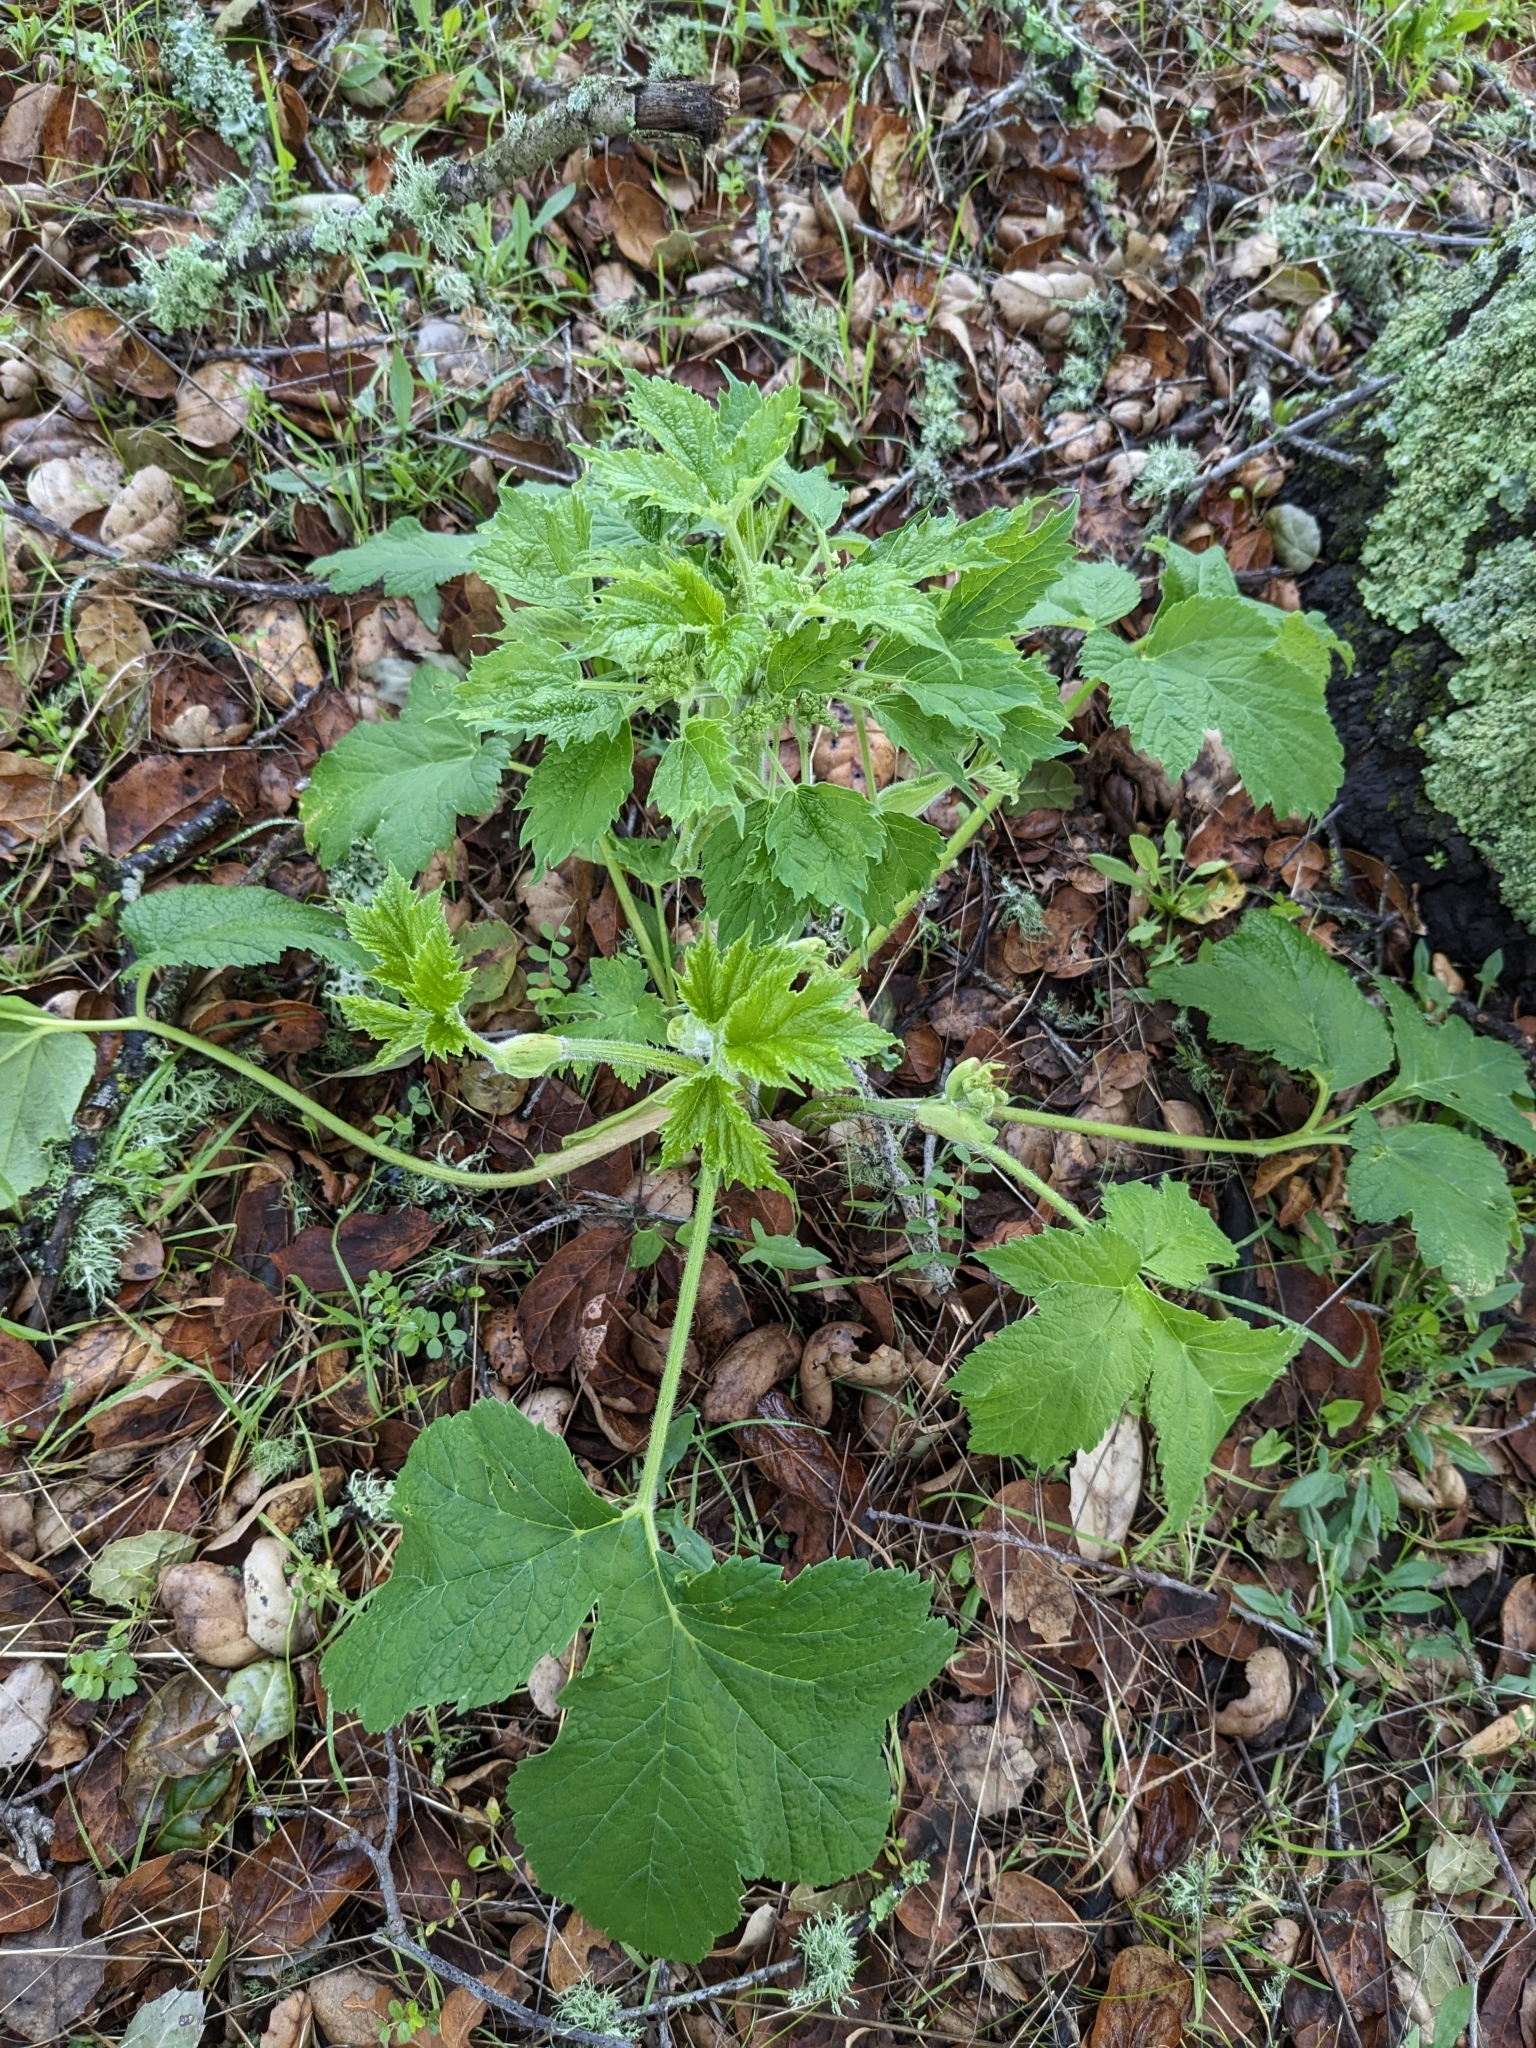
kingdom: Plantae
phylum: Tracheophyta
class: Magnoliopsida
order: Apiales
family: Apiaceae
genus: Heracleum
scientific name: Heracleum maximum
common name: American cow parsnip
